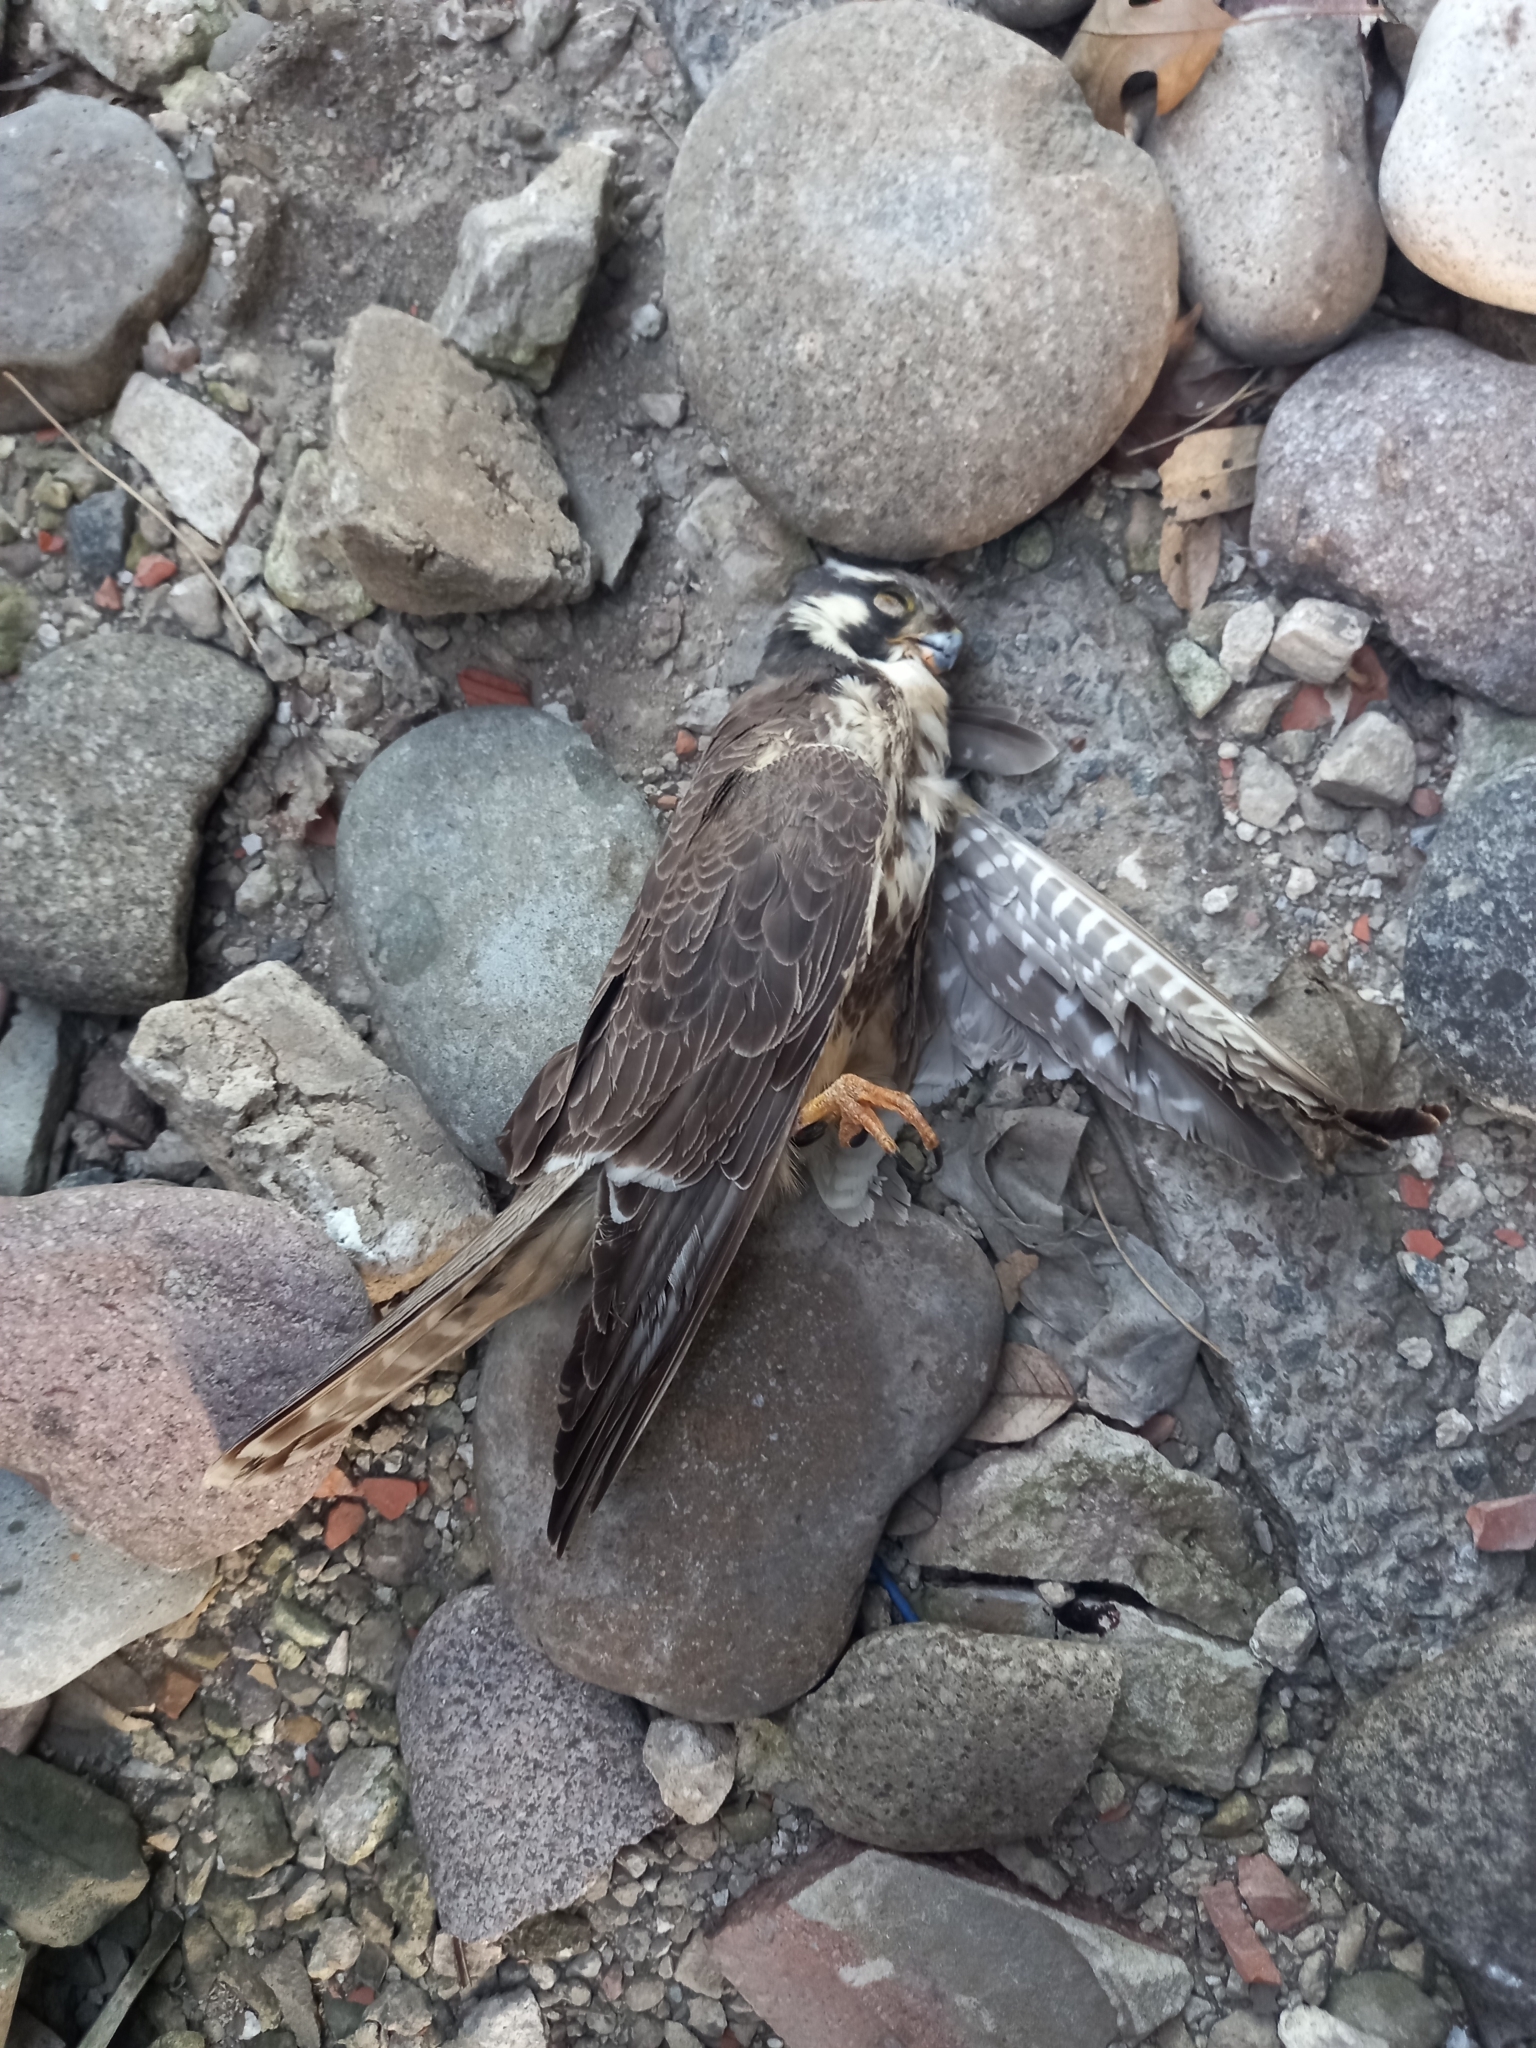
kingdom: Animalia
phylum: Chordata
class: Aves
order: Falconiformes
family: Falconidae
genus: Falco
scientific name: Falco femoralis
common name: Aplomado falcon
